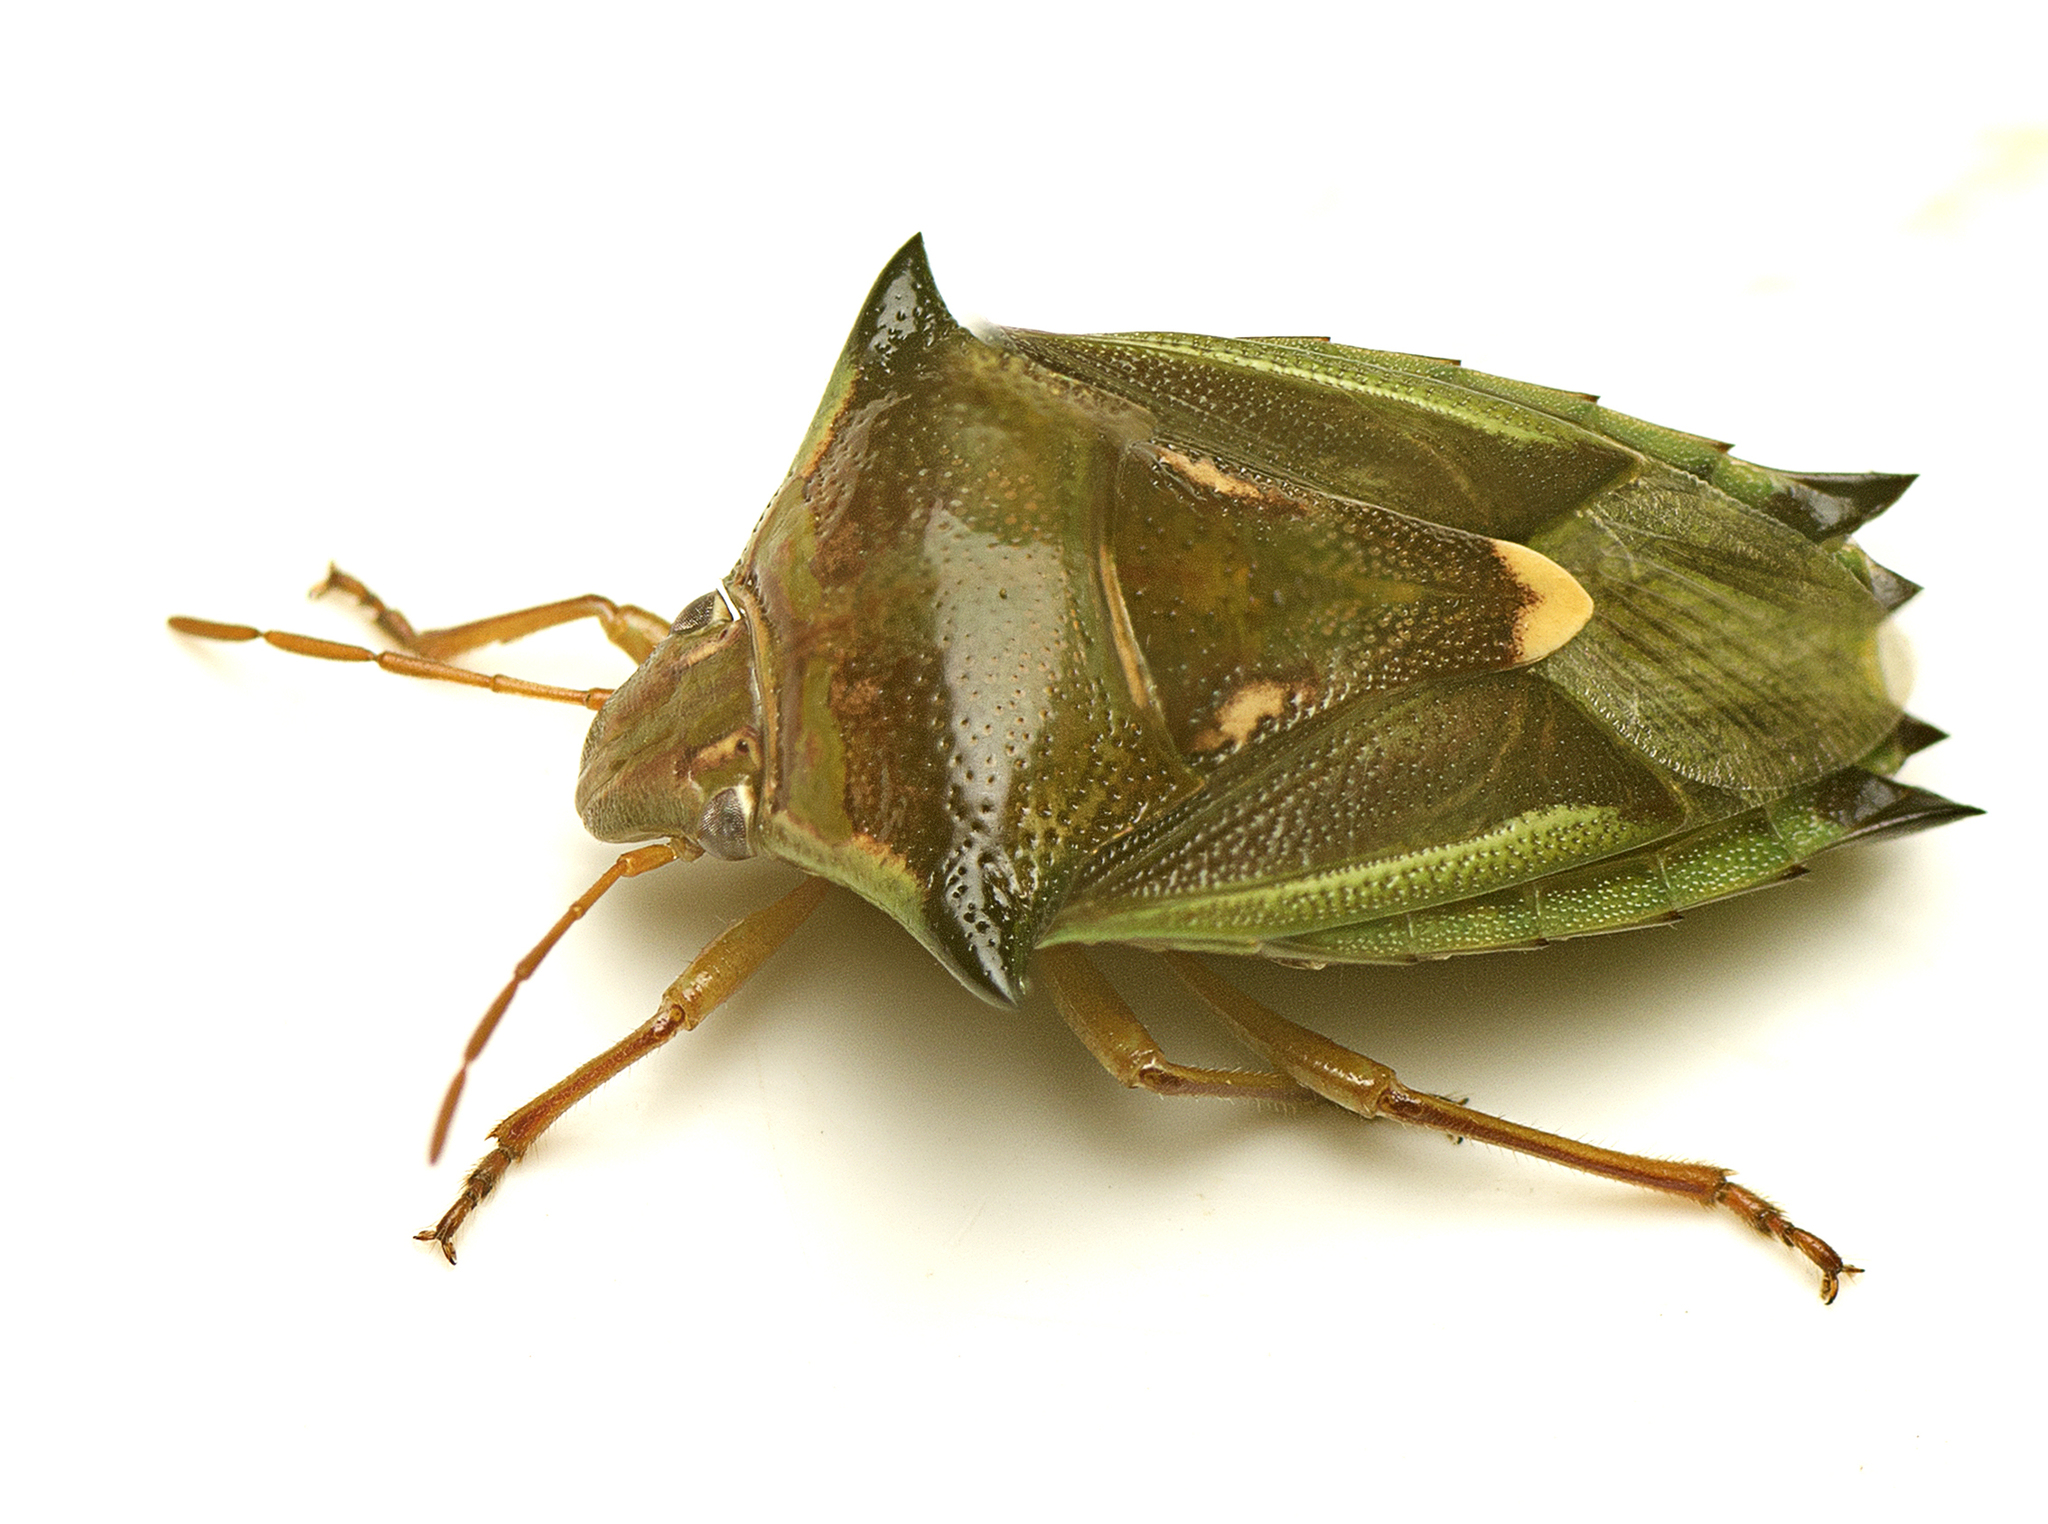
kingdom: Animalia
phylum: Arthropoda
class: Insecta
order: Hemiptera
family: Pentatomidae
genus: Morna
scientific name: Morna
